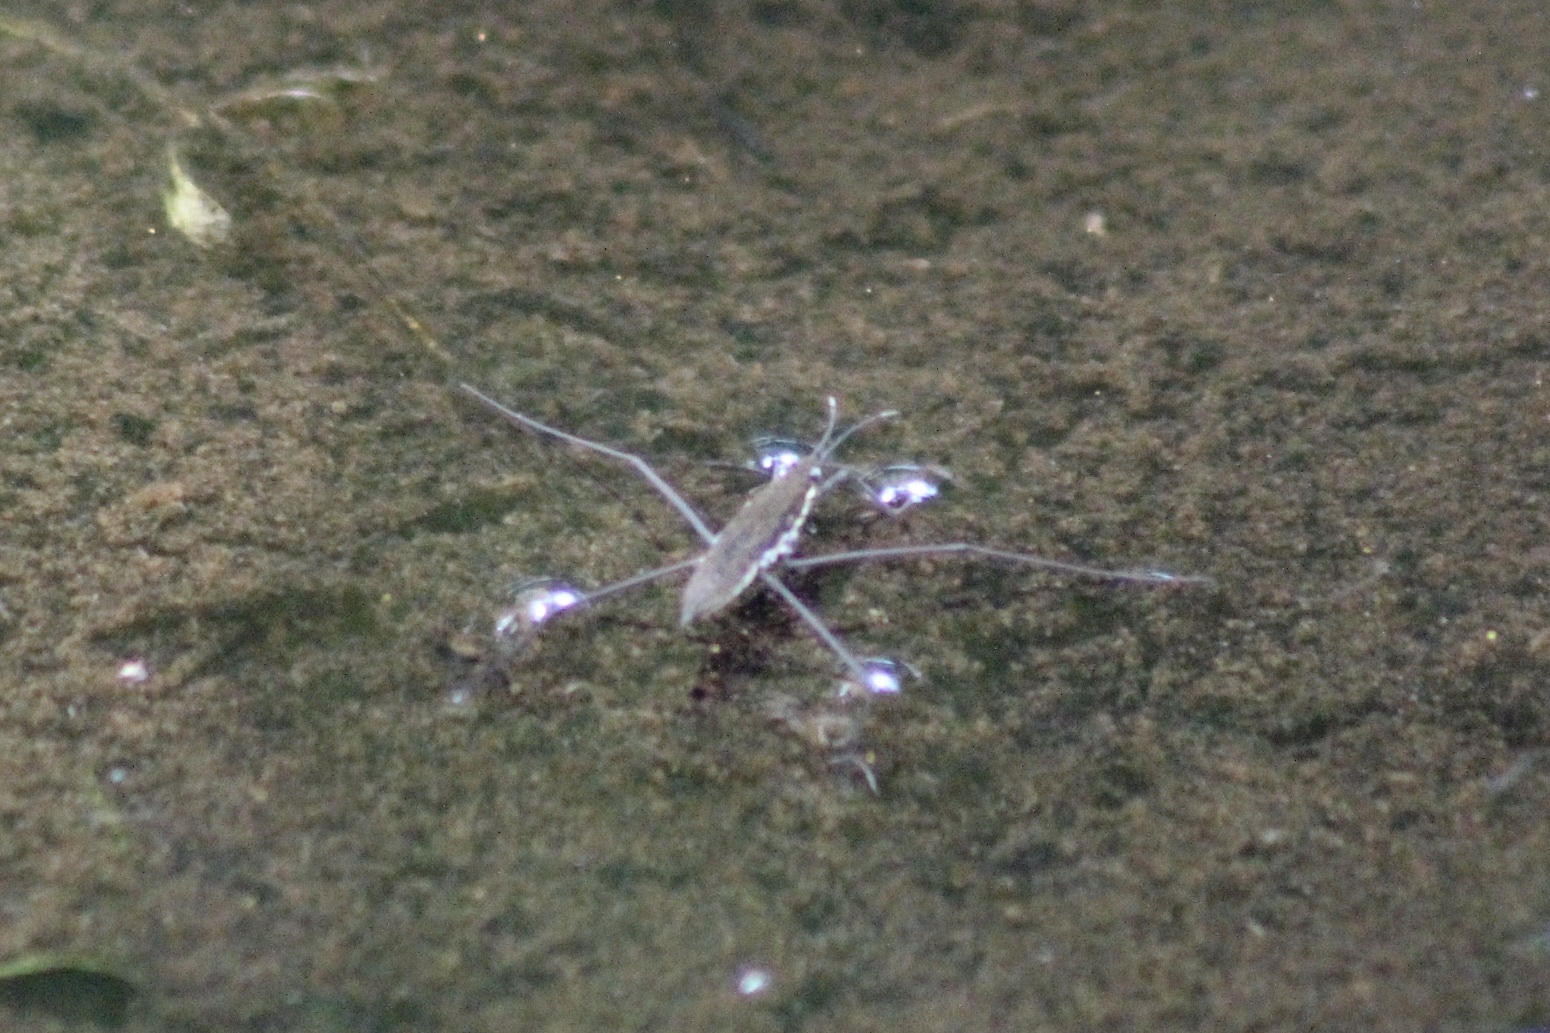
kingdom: Animalia
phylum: Arthropoda
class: Insecta
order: Hemiptera
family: Gerridae
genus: Aquarius
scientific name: Aquarius remigis
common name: Common water strider
